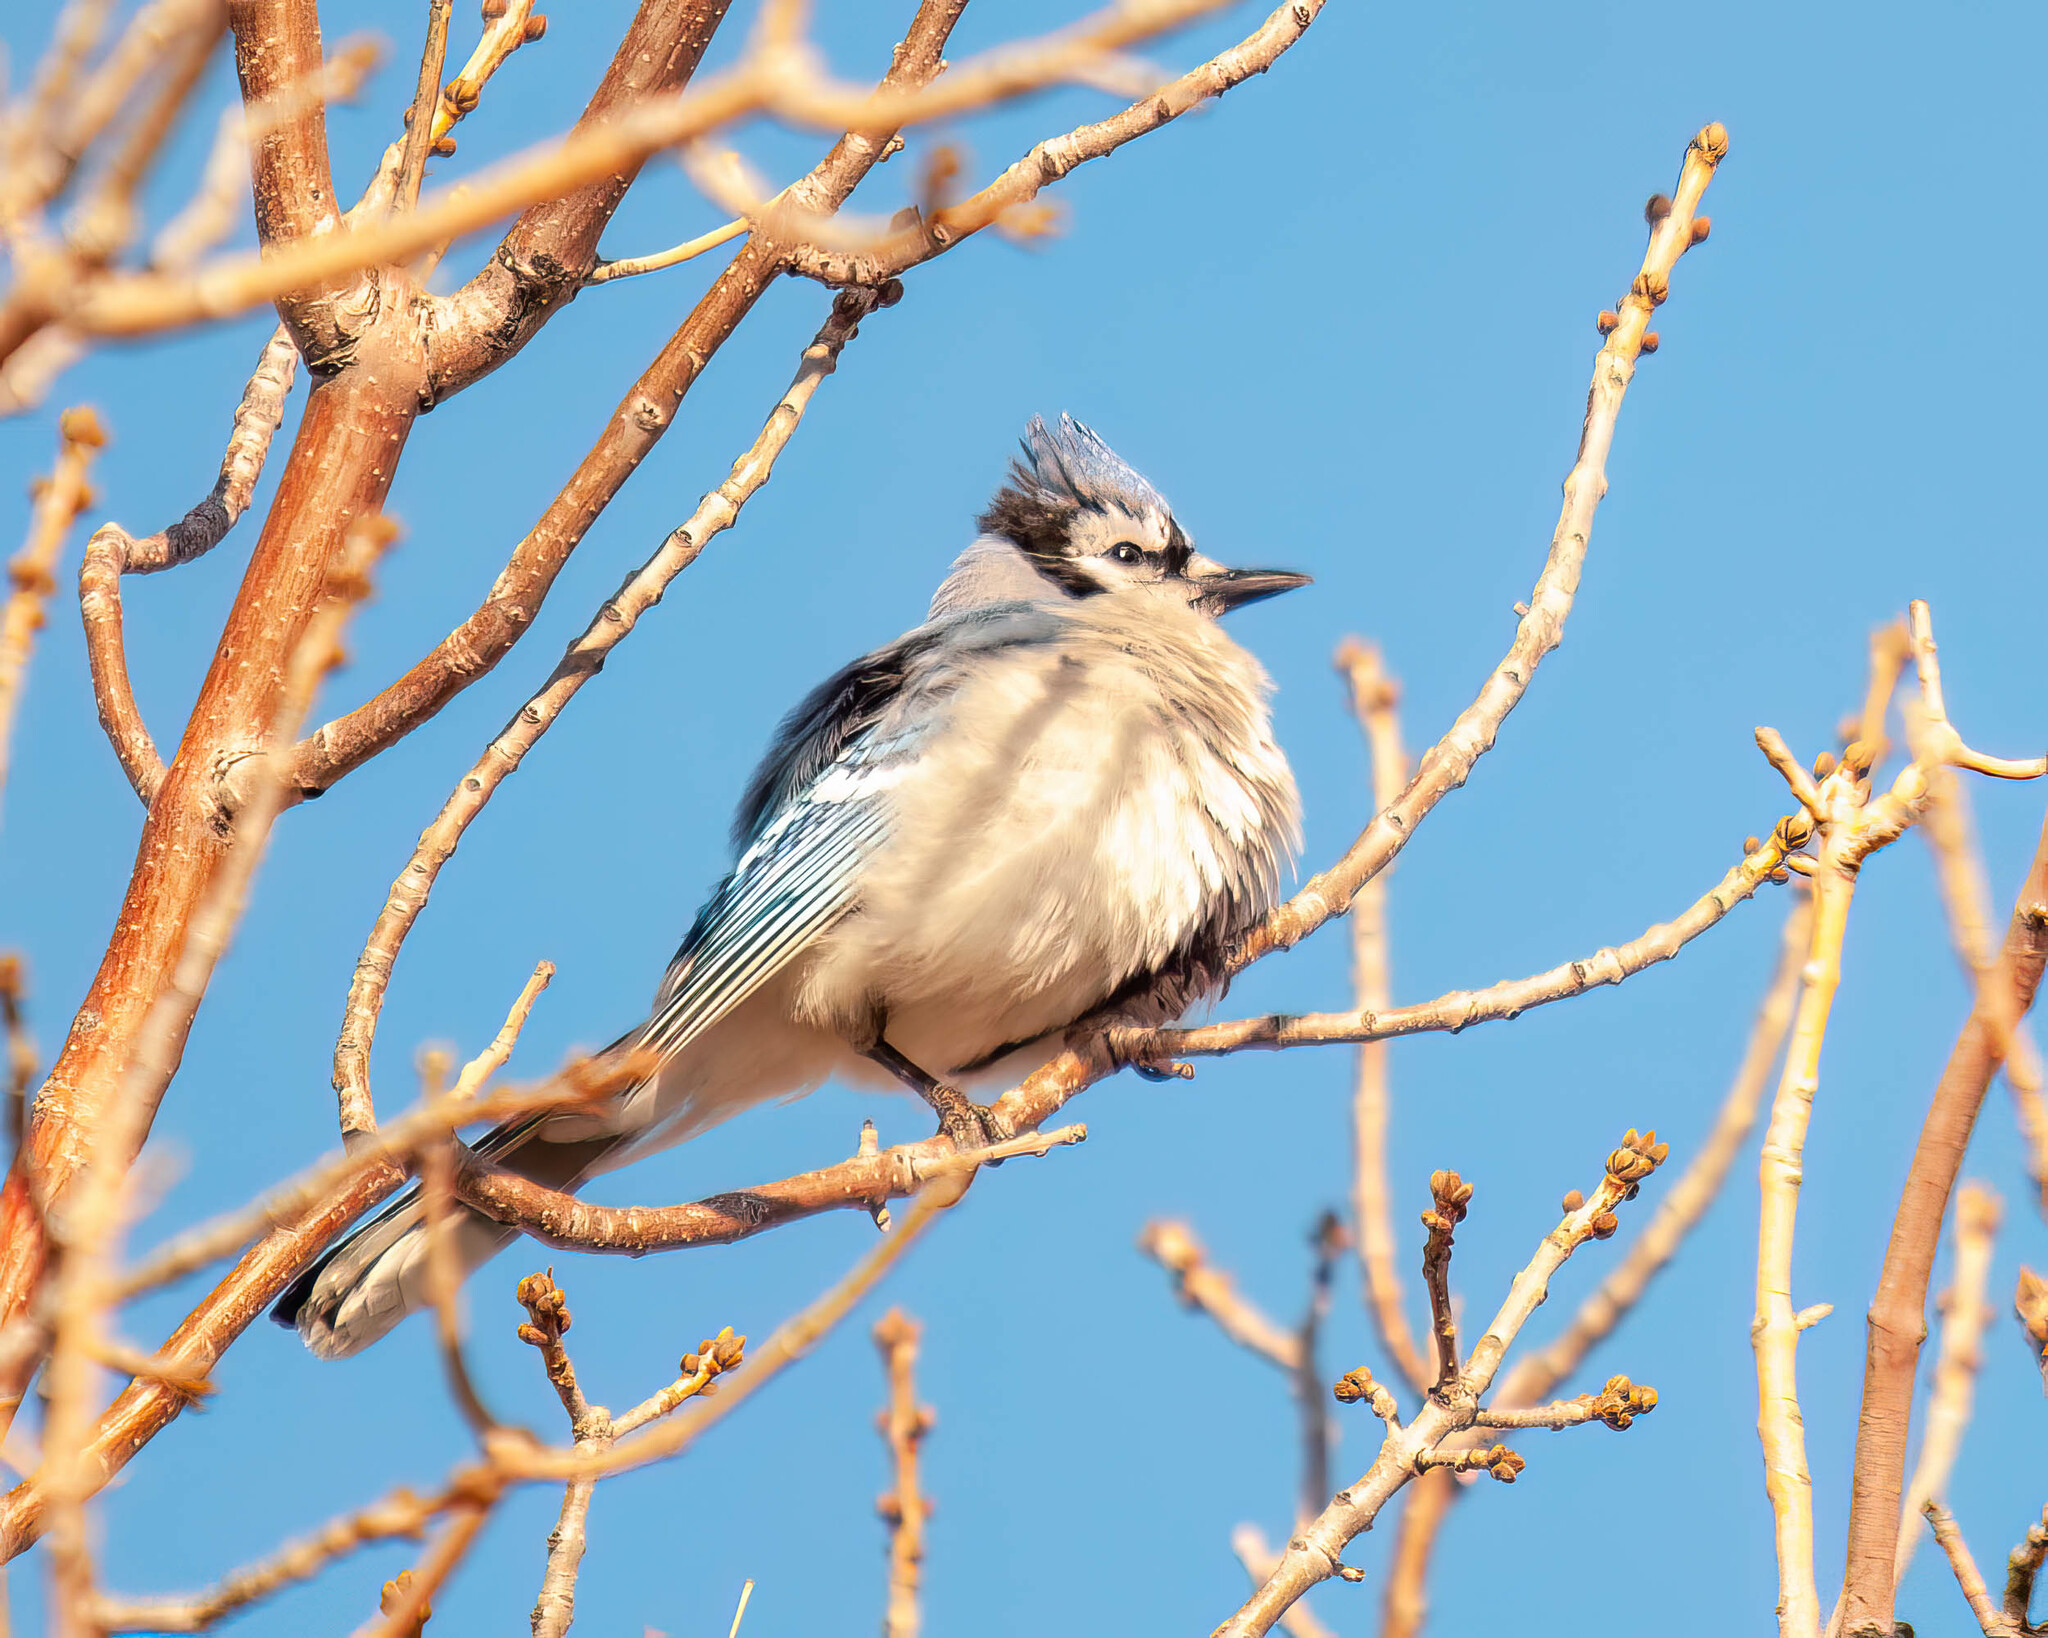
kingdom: Animalia
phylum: Chordata
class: Aves
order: Passeriformes
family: Corvidae
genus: Cyanocitta
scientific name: Cyanocitta cristata
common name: Blue jay
